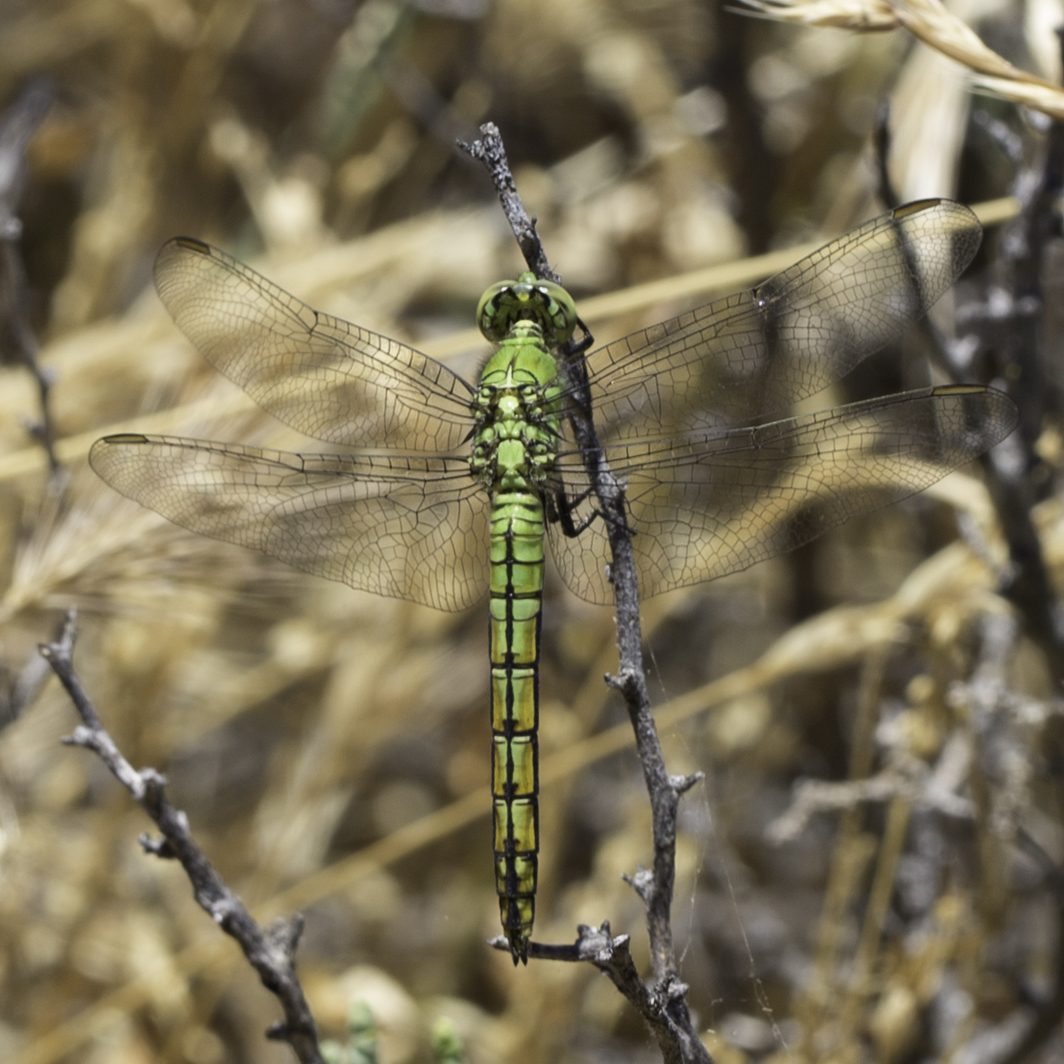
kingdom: Animalia
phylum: Arthropoda
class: Insecta
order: Odonata
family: Libellulidae
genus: Erythemis
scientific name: Erythemis collocata
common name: Western pondhawk
